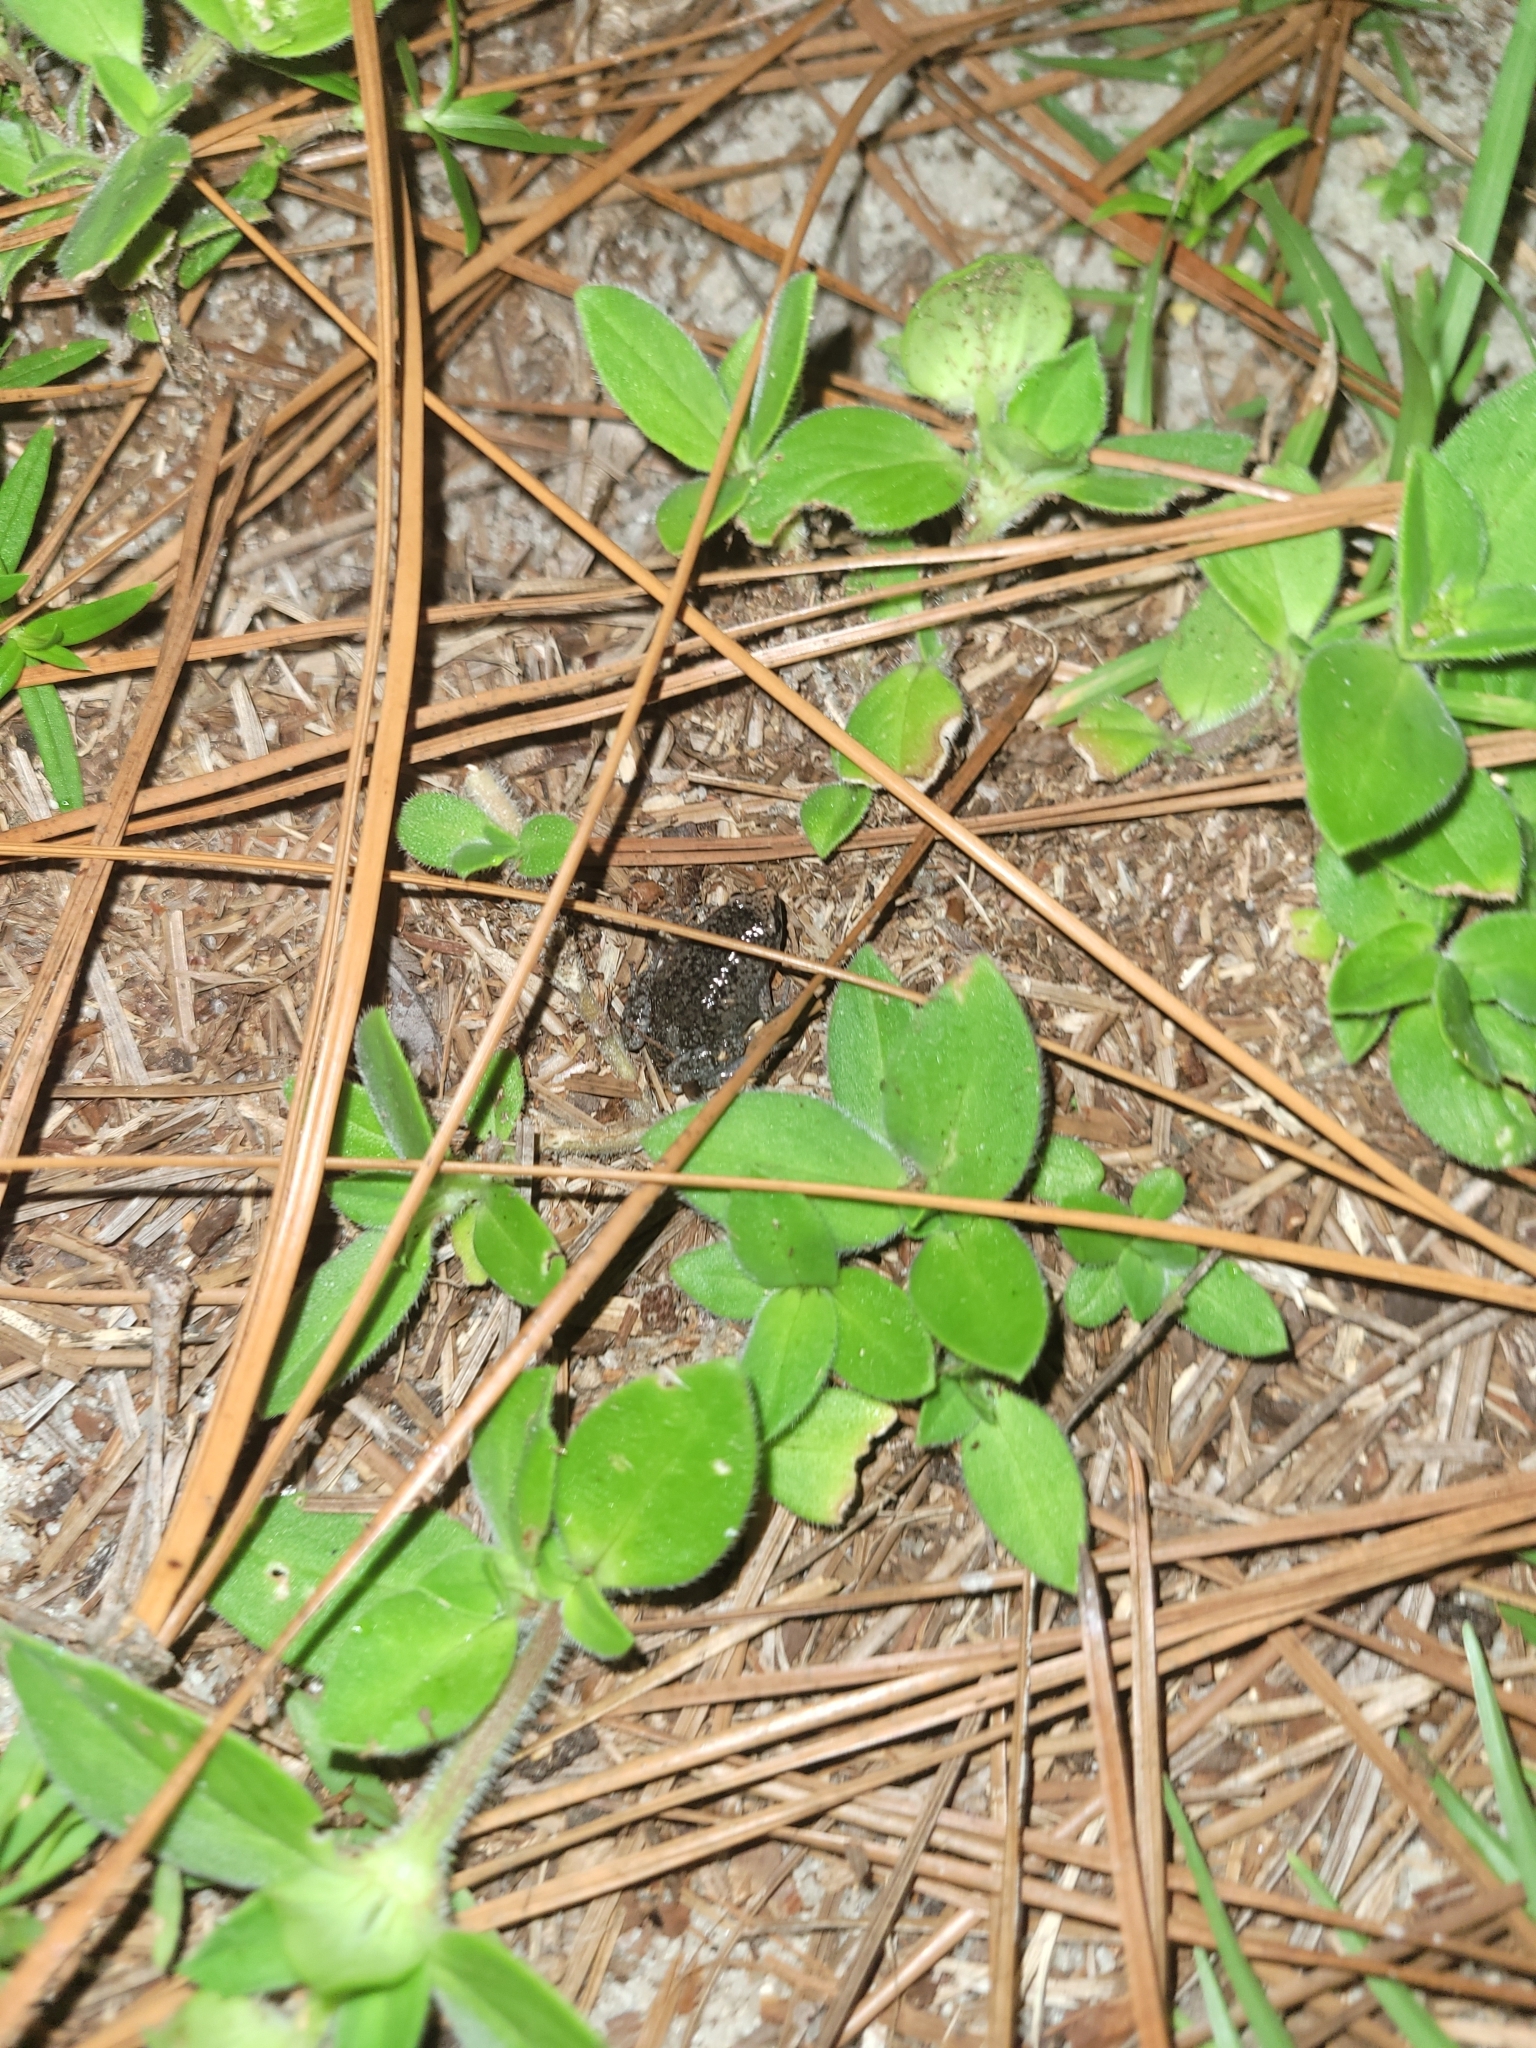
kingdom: Animalia
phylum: Chordata
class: Amphibia
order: Anura
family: Microhylidae
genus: Gastrophryne
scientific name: Gastrophryne carolinensis
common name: Eastern narrowmouth toad
